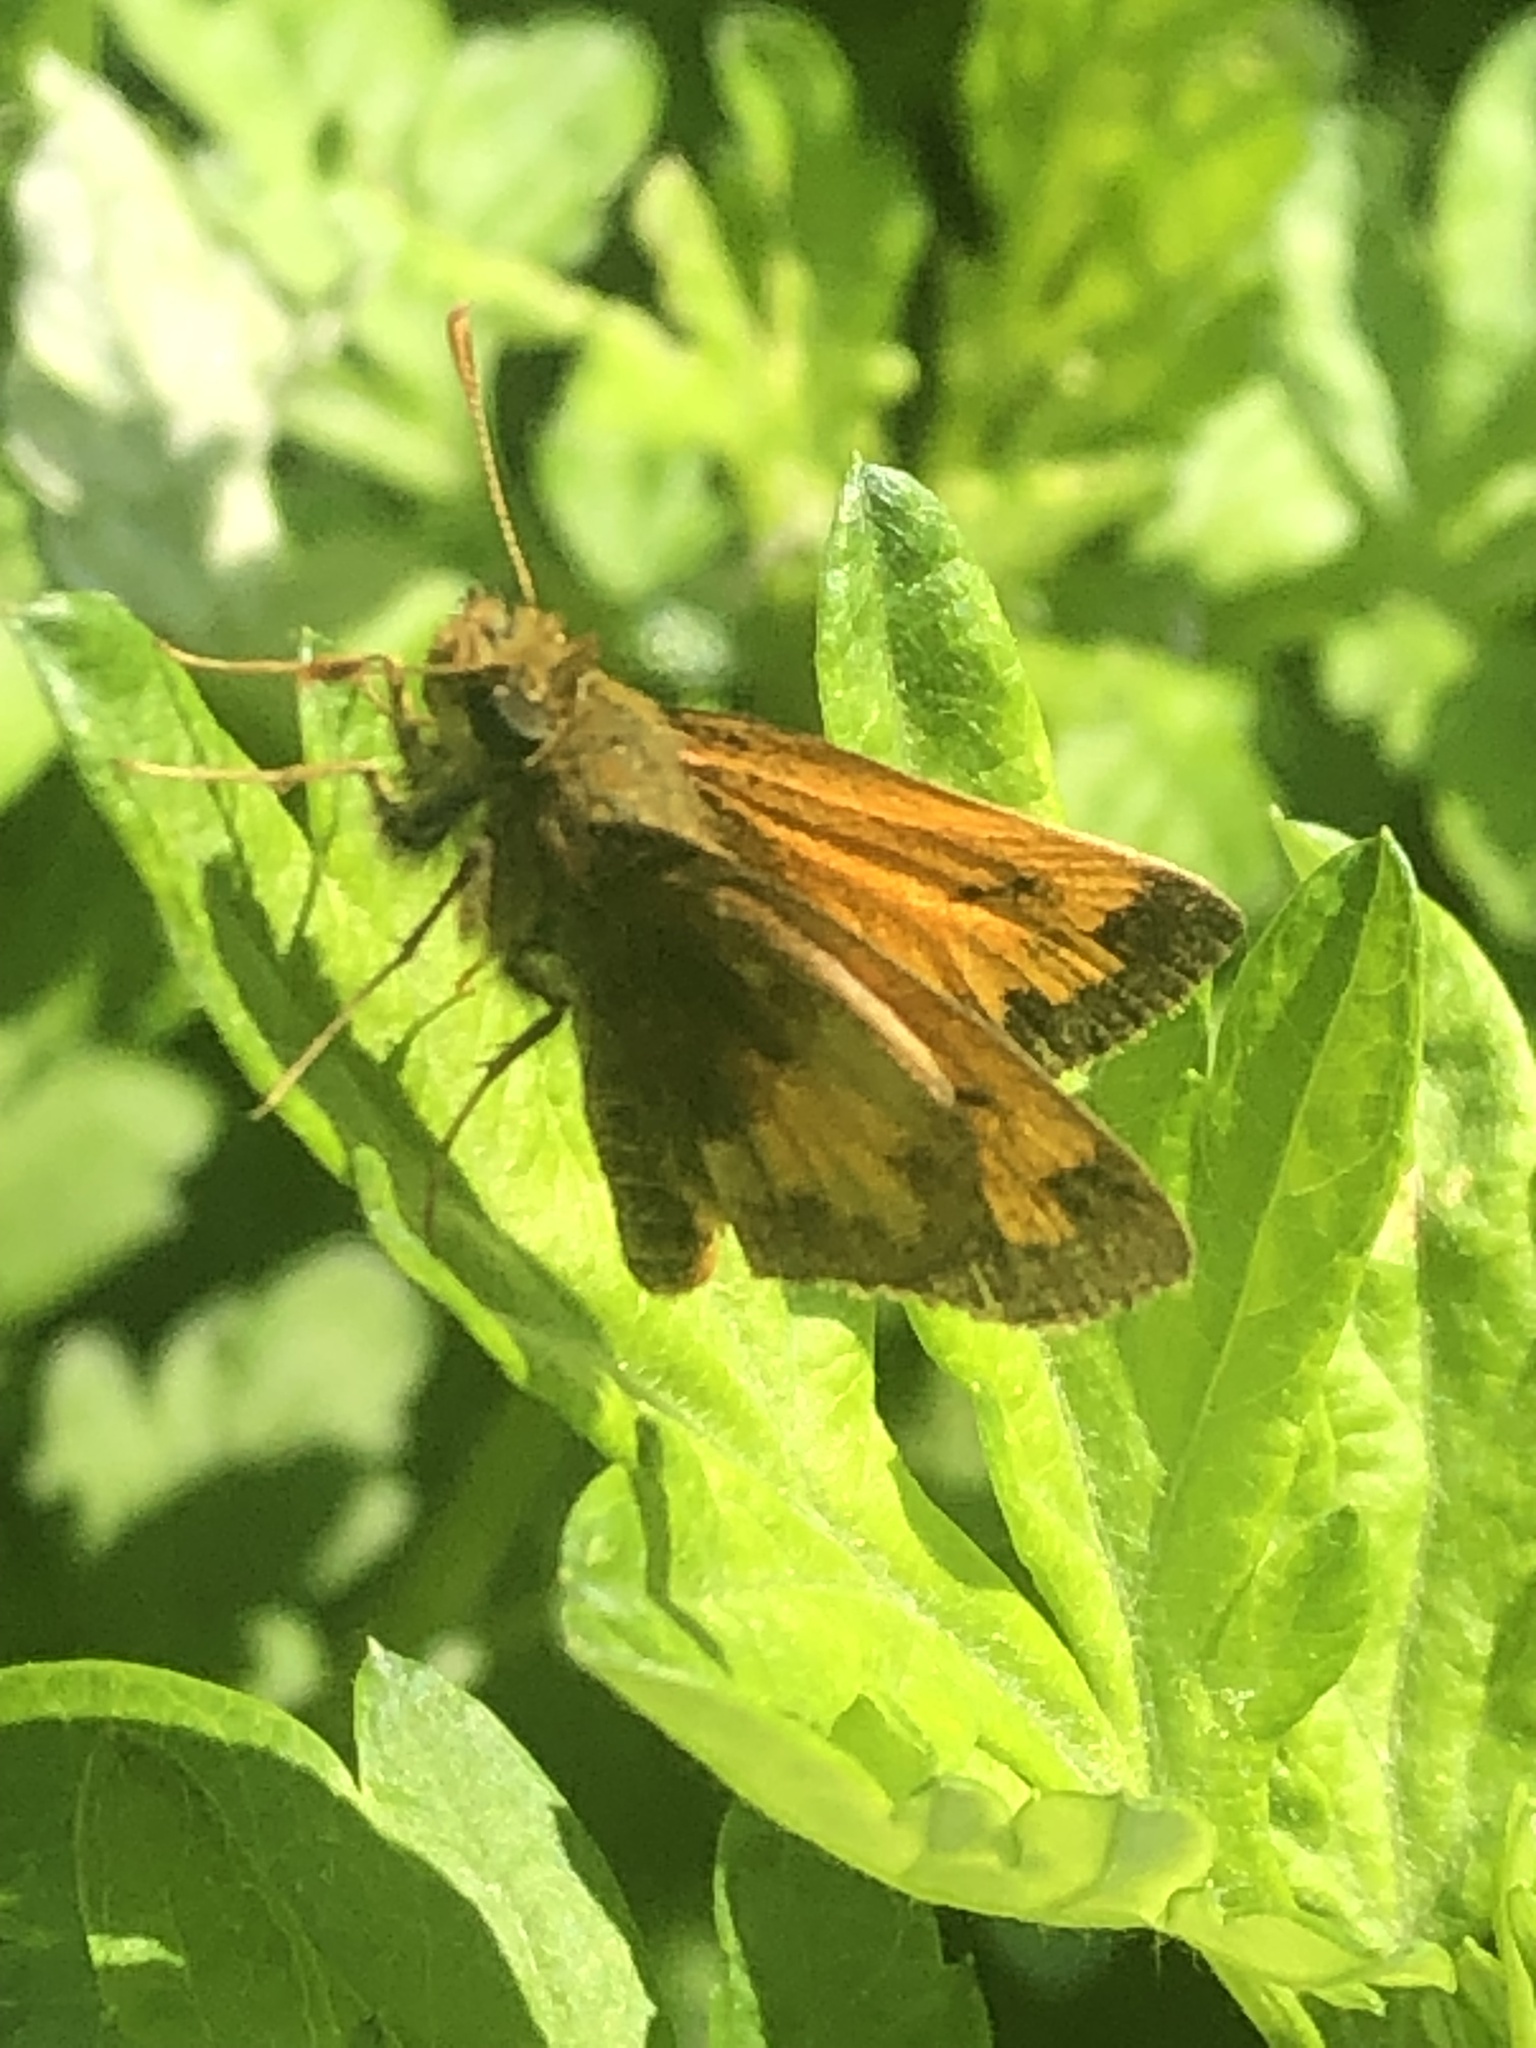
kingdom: Animalia
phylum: Arthropoda
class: Insecta
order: Lepidoptera
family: Hesperiidae
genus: Lon
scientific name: Lon hobomok
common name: Hobomok skipper
